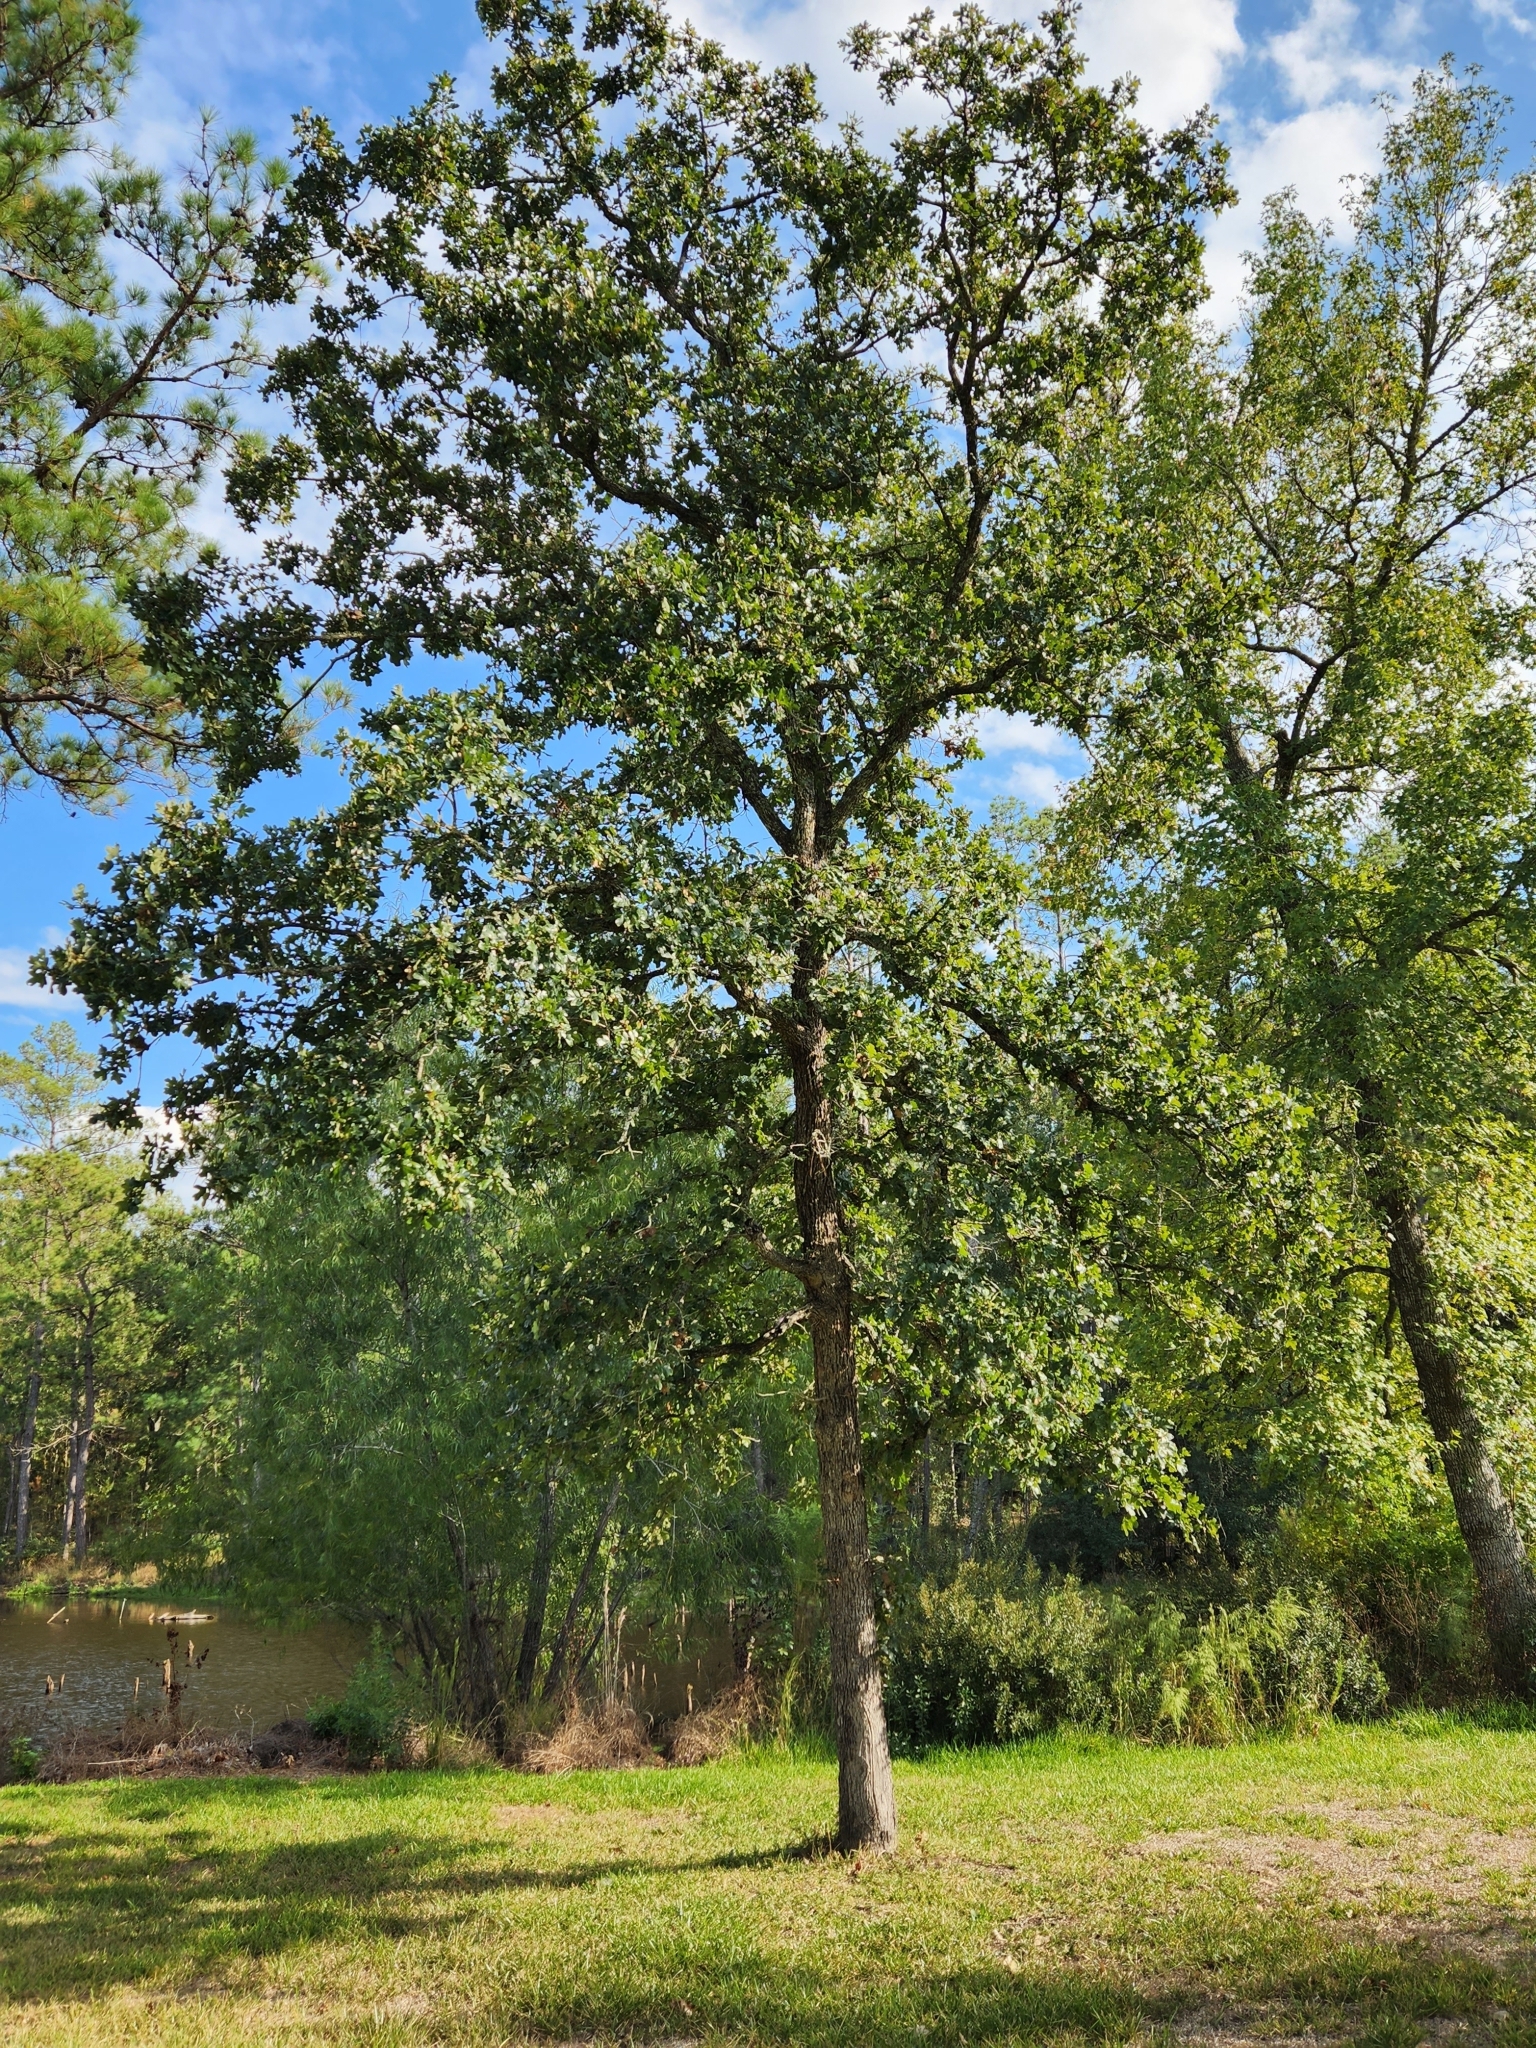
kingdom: Plantae
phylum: Tracheophyta
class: Magnoliopsida
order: Fagales
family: Fagaceae
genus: Quercus
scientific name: Quercus stellata
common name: Post oak
